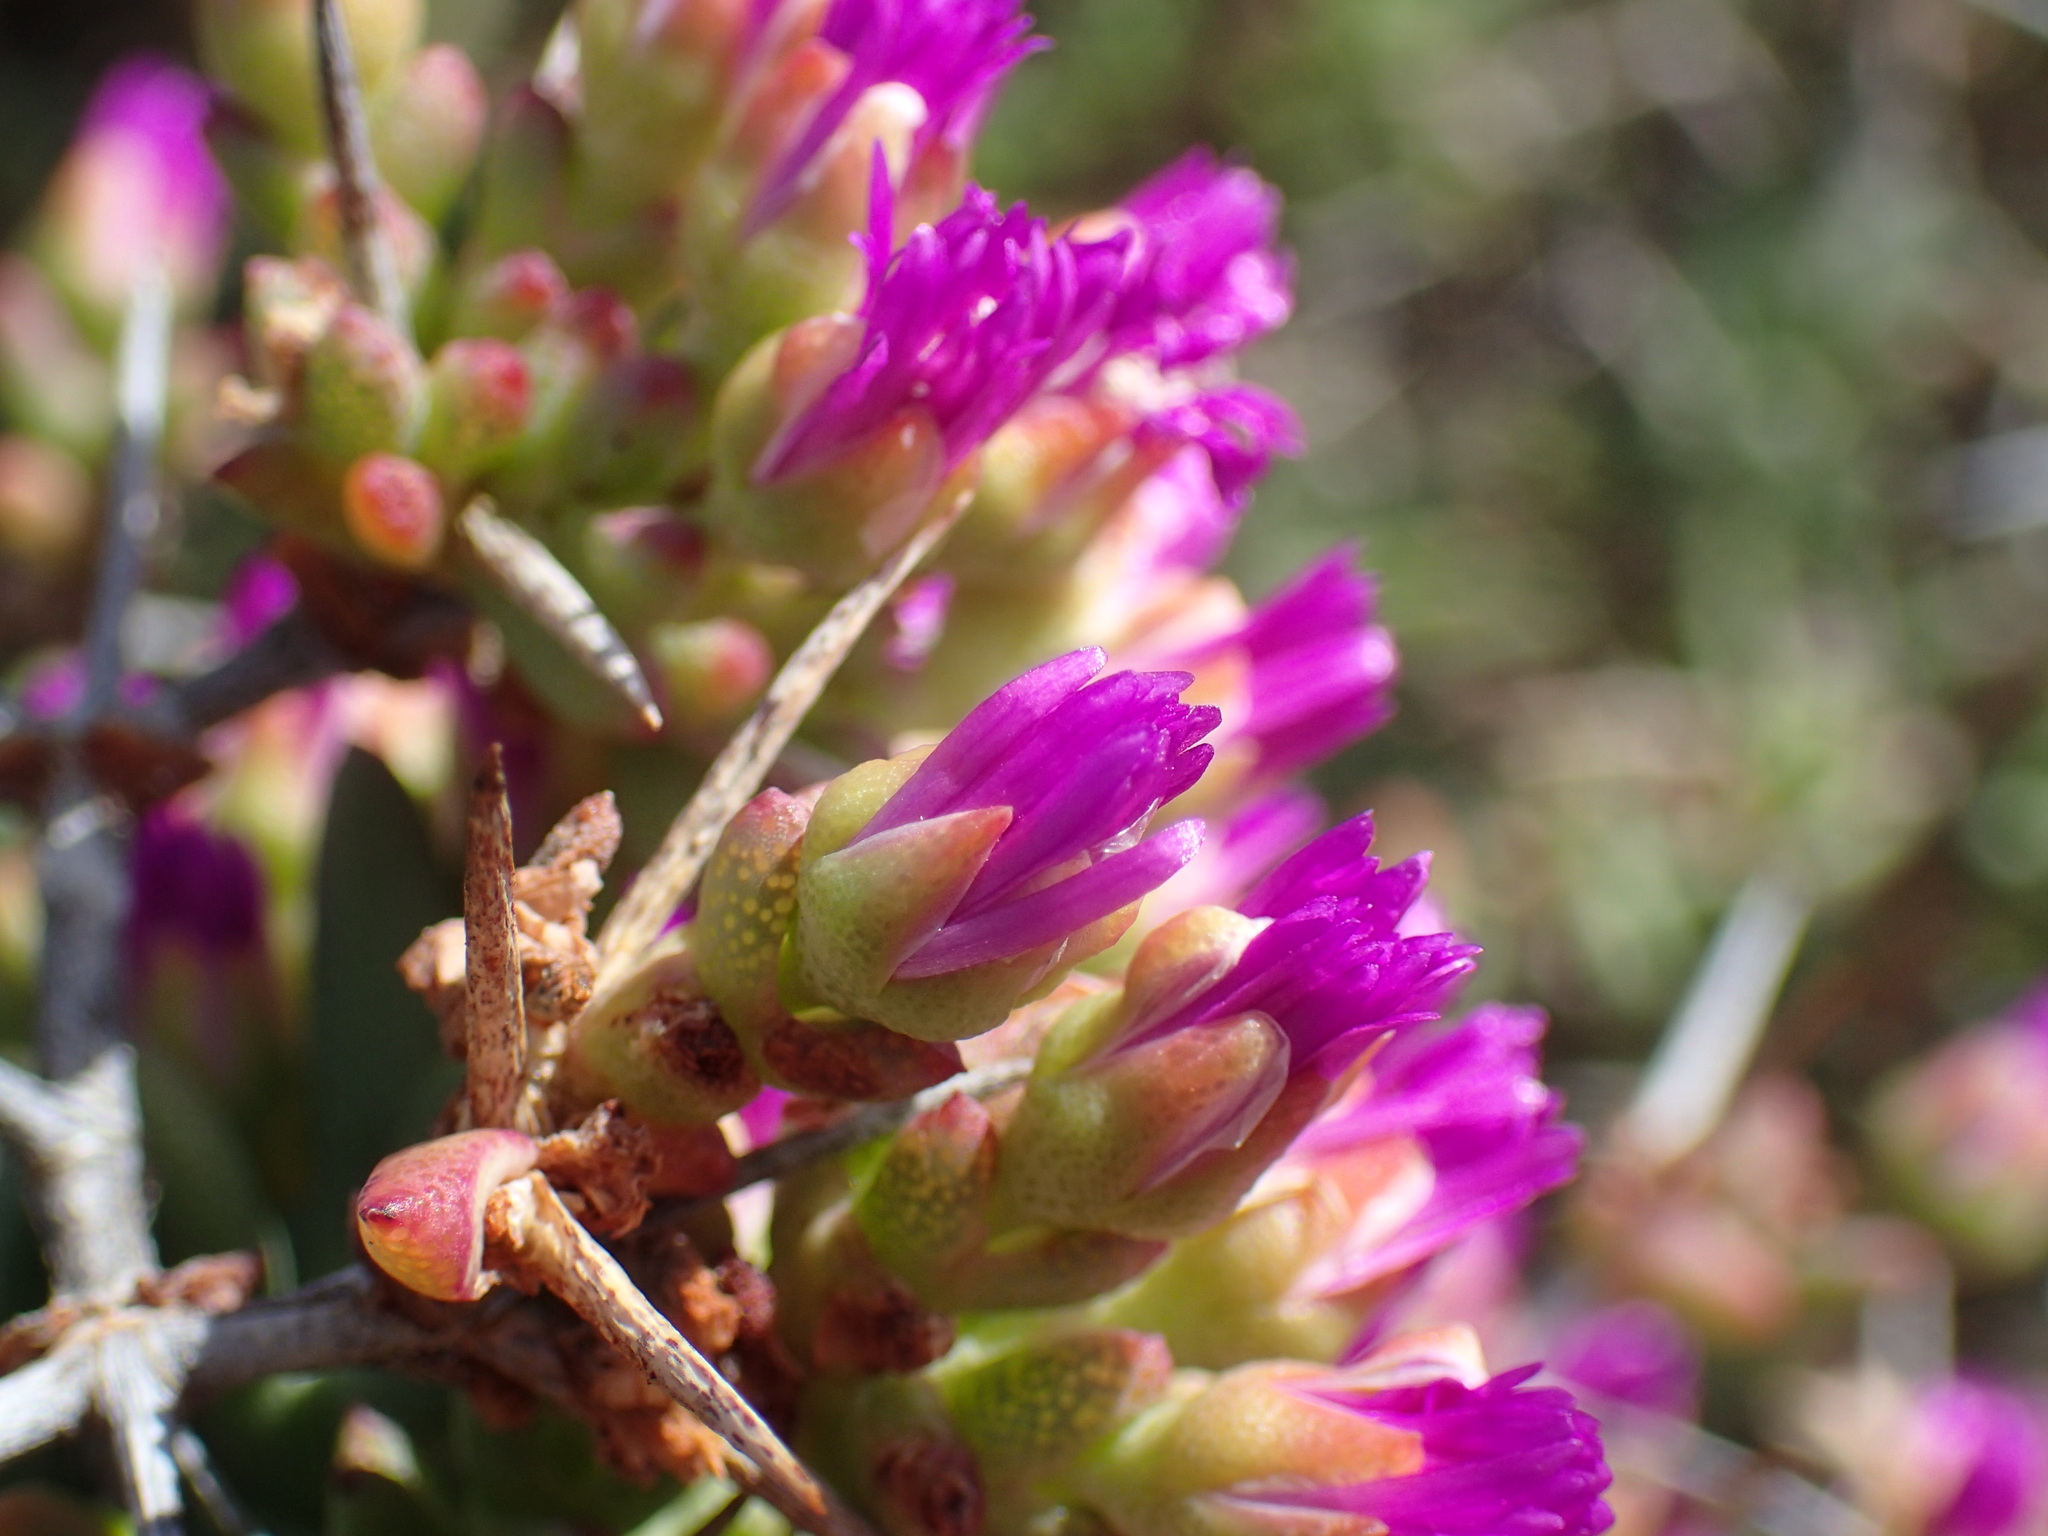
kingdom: Plantae
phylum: Tracheophyta
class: Magnoliopsida
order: Caryophyllales
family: Aizoaceae
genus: Ruschia
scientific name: Ruschia intricata
